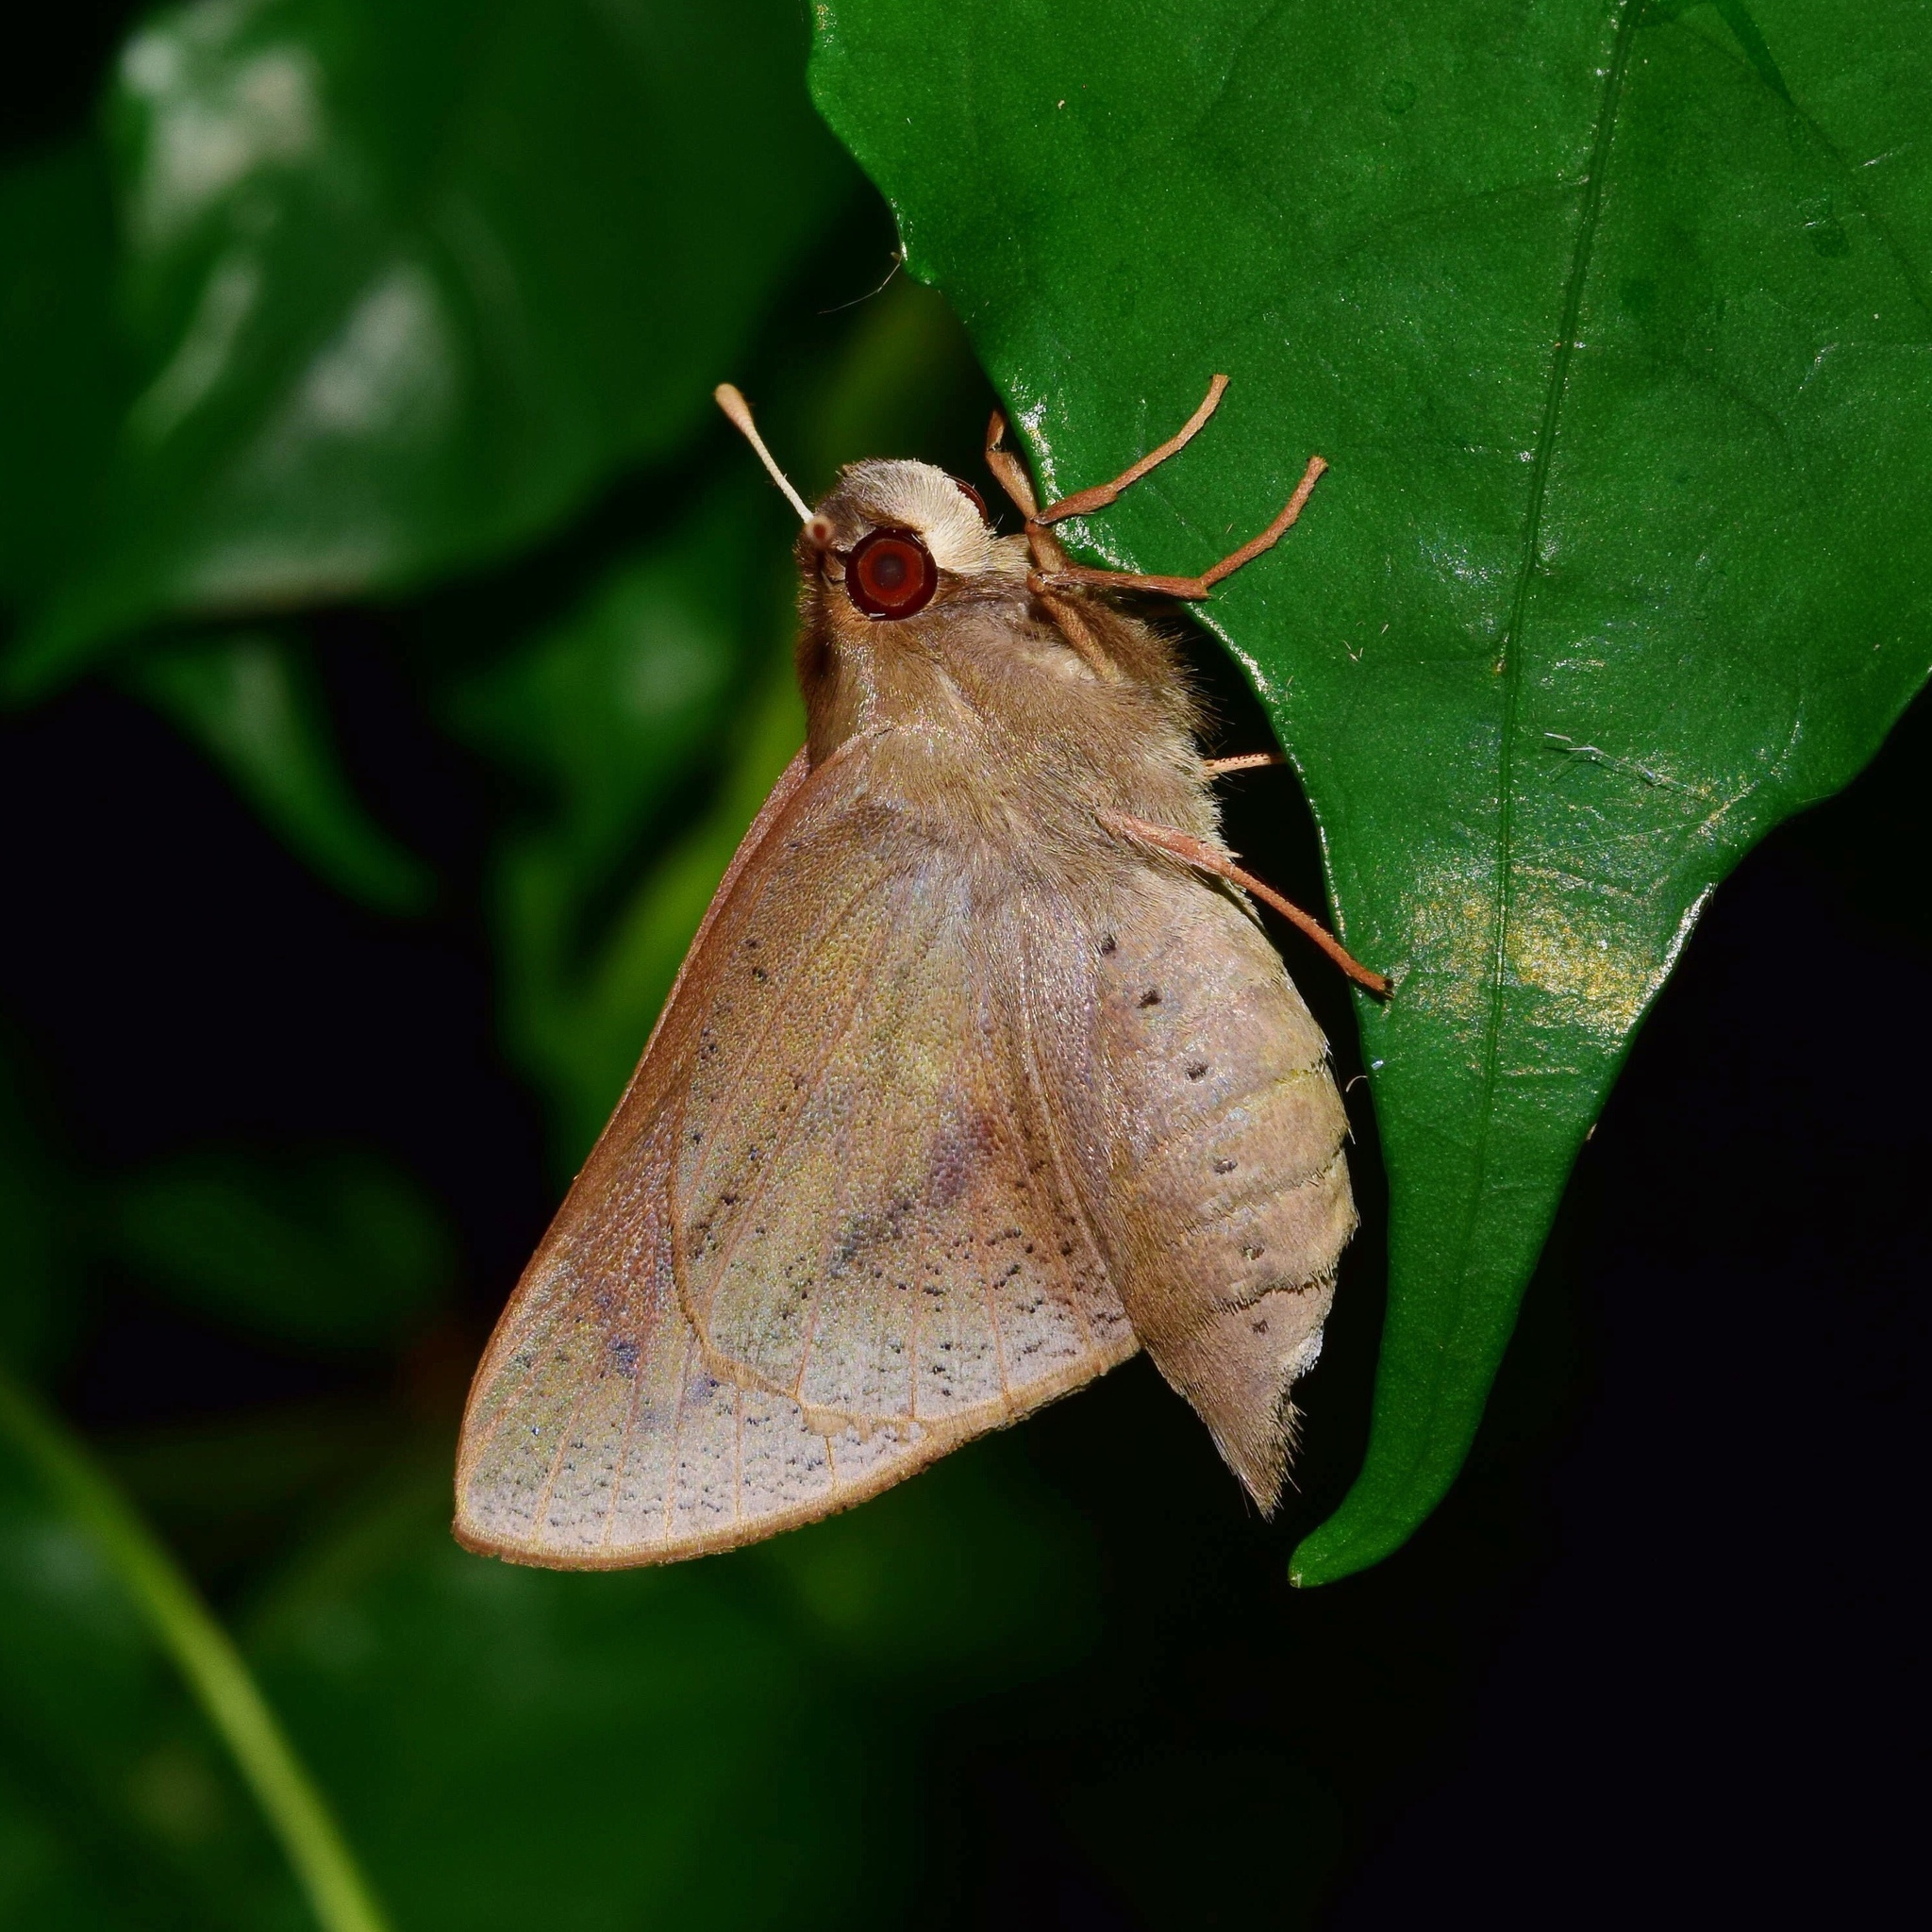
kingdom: Animalia
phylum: Arthropoda
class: Insecta
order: Lepidoptera
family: Hesperiidae
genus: Moltena
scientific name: Moltena fiara
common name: Banana-tree night-fighter
